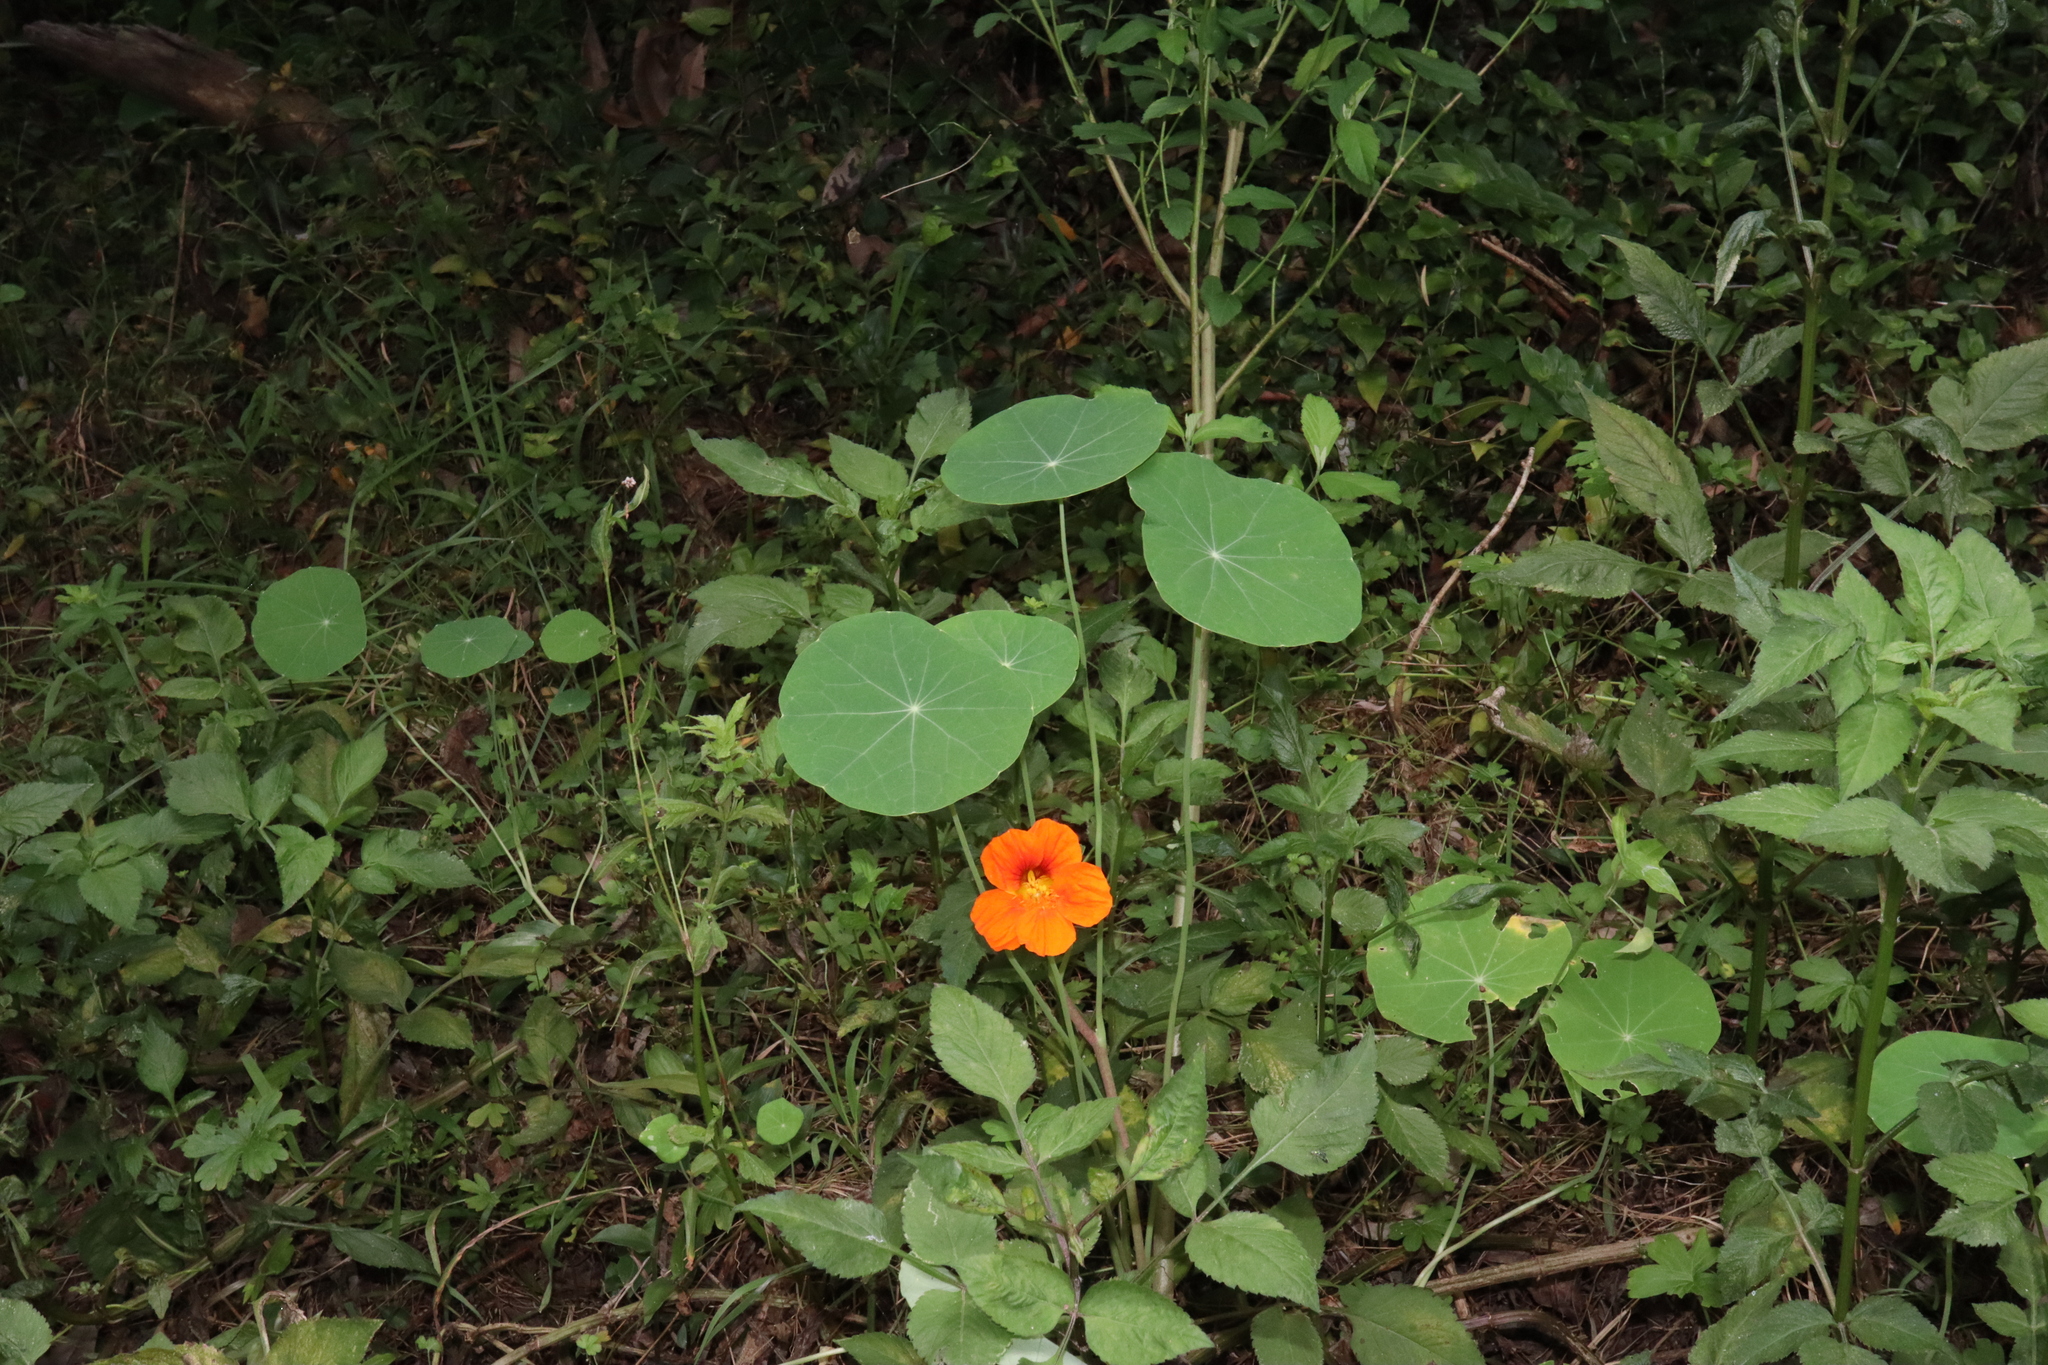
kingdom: Plantae
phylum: Tracheophyta
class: Magnoliopsida
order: Brassicales
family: Tropaeolaceae
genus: Tropaeolum
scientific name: Tropaeolum majus
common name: Nasturtium
